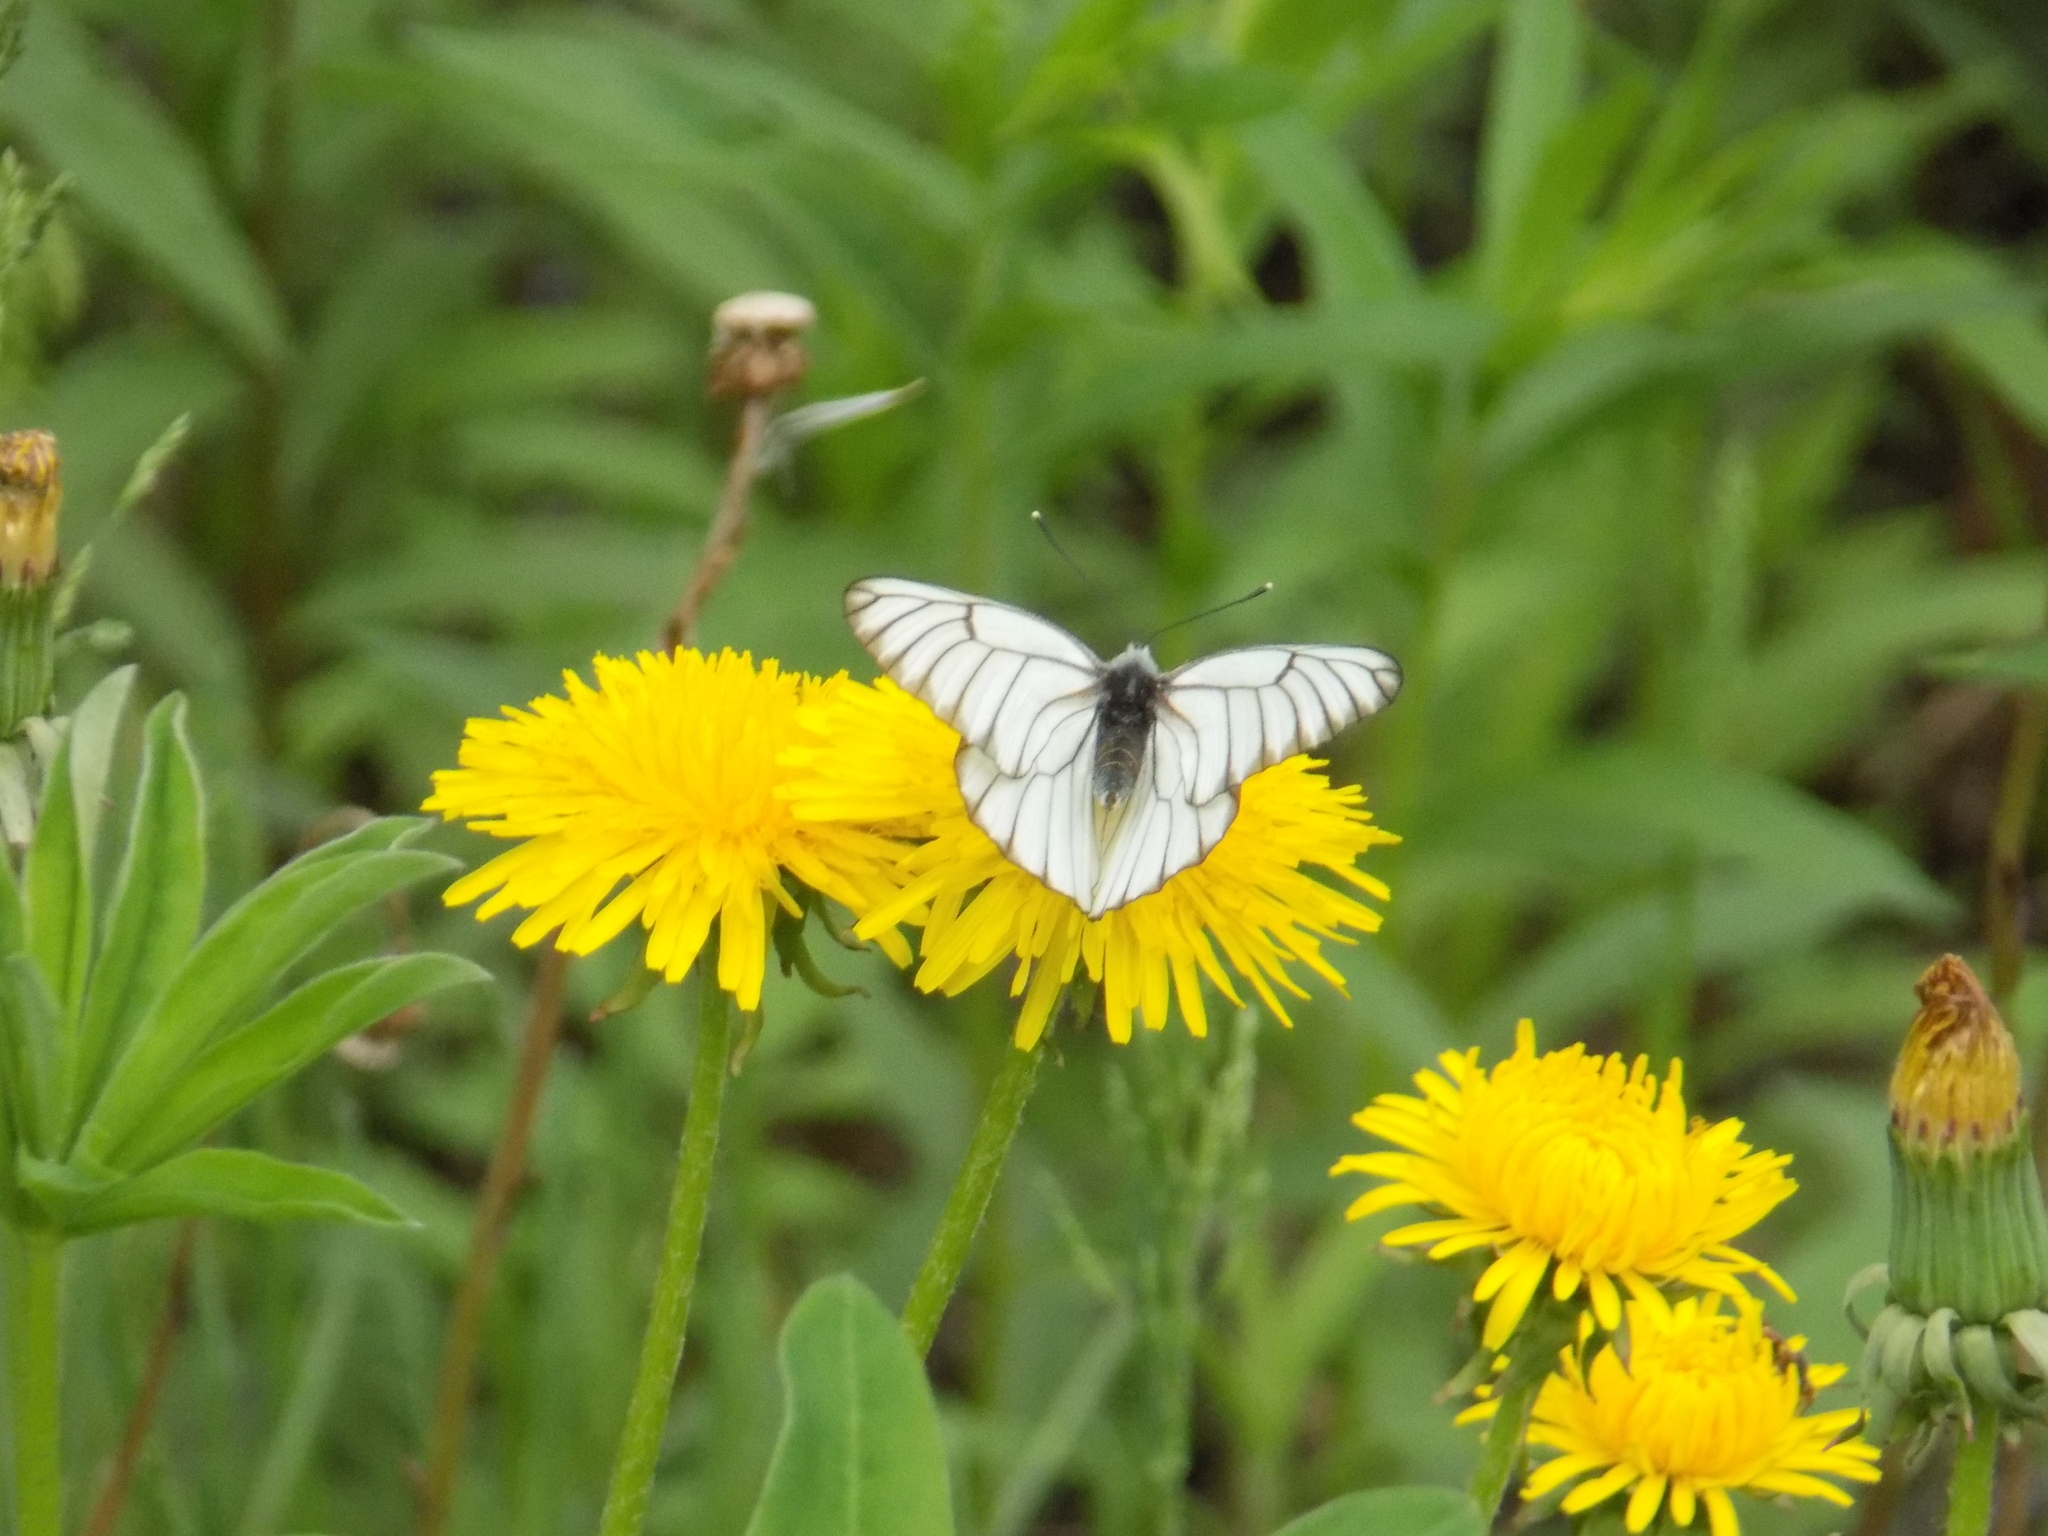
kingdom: Animalia
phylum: Arthropoda
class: Insecta
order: Lepidoptera
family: Pieridae
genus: Aporia
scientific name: Aporia crataegi
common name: Black-veined white
